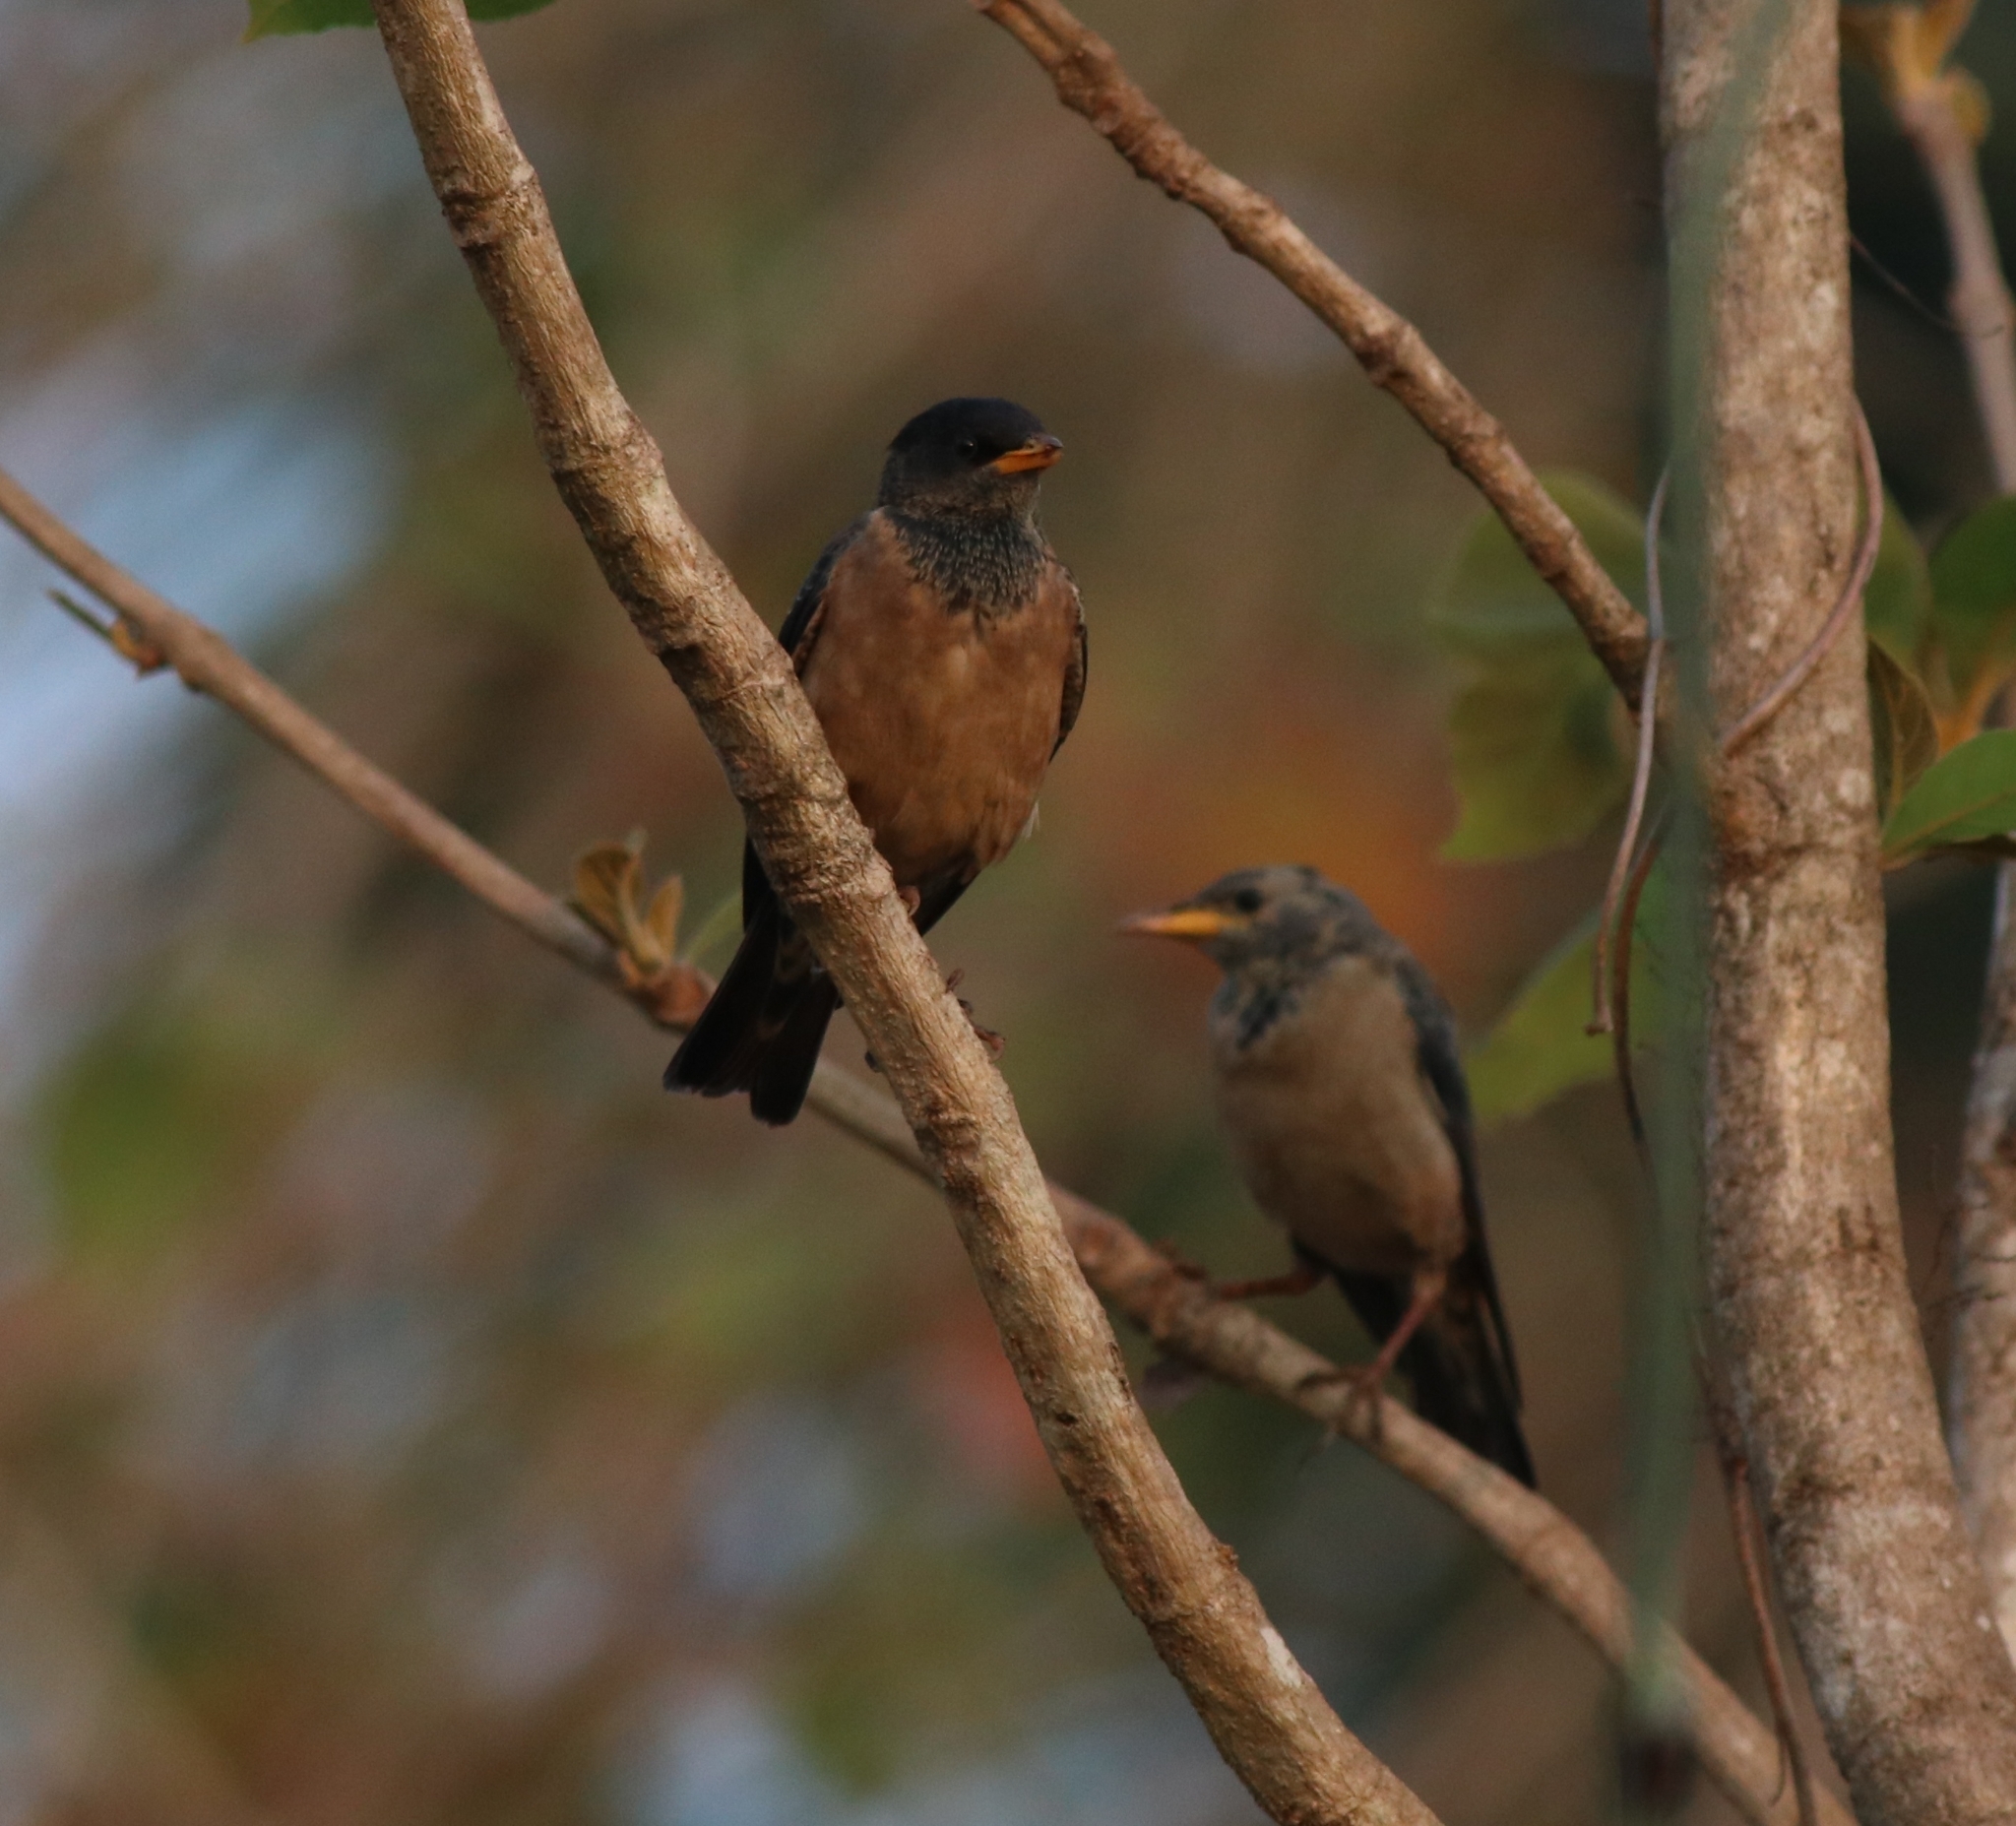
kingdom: Animalia
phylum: Chordata
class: Aves
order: Passeriformes
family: Sturnidae
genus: Pastor
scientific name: Pastor roseus
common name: Rosy starling
